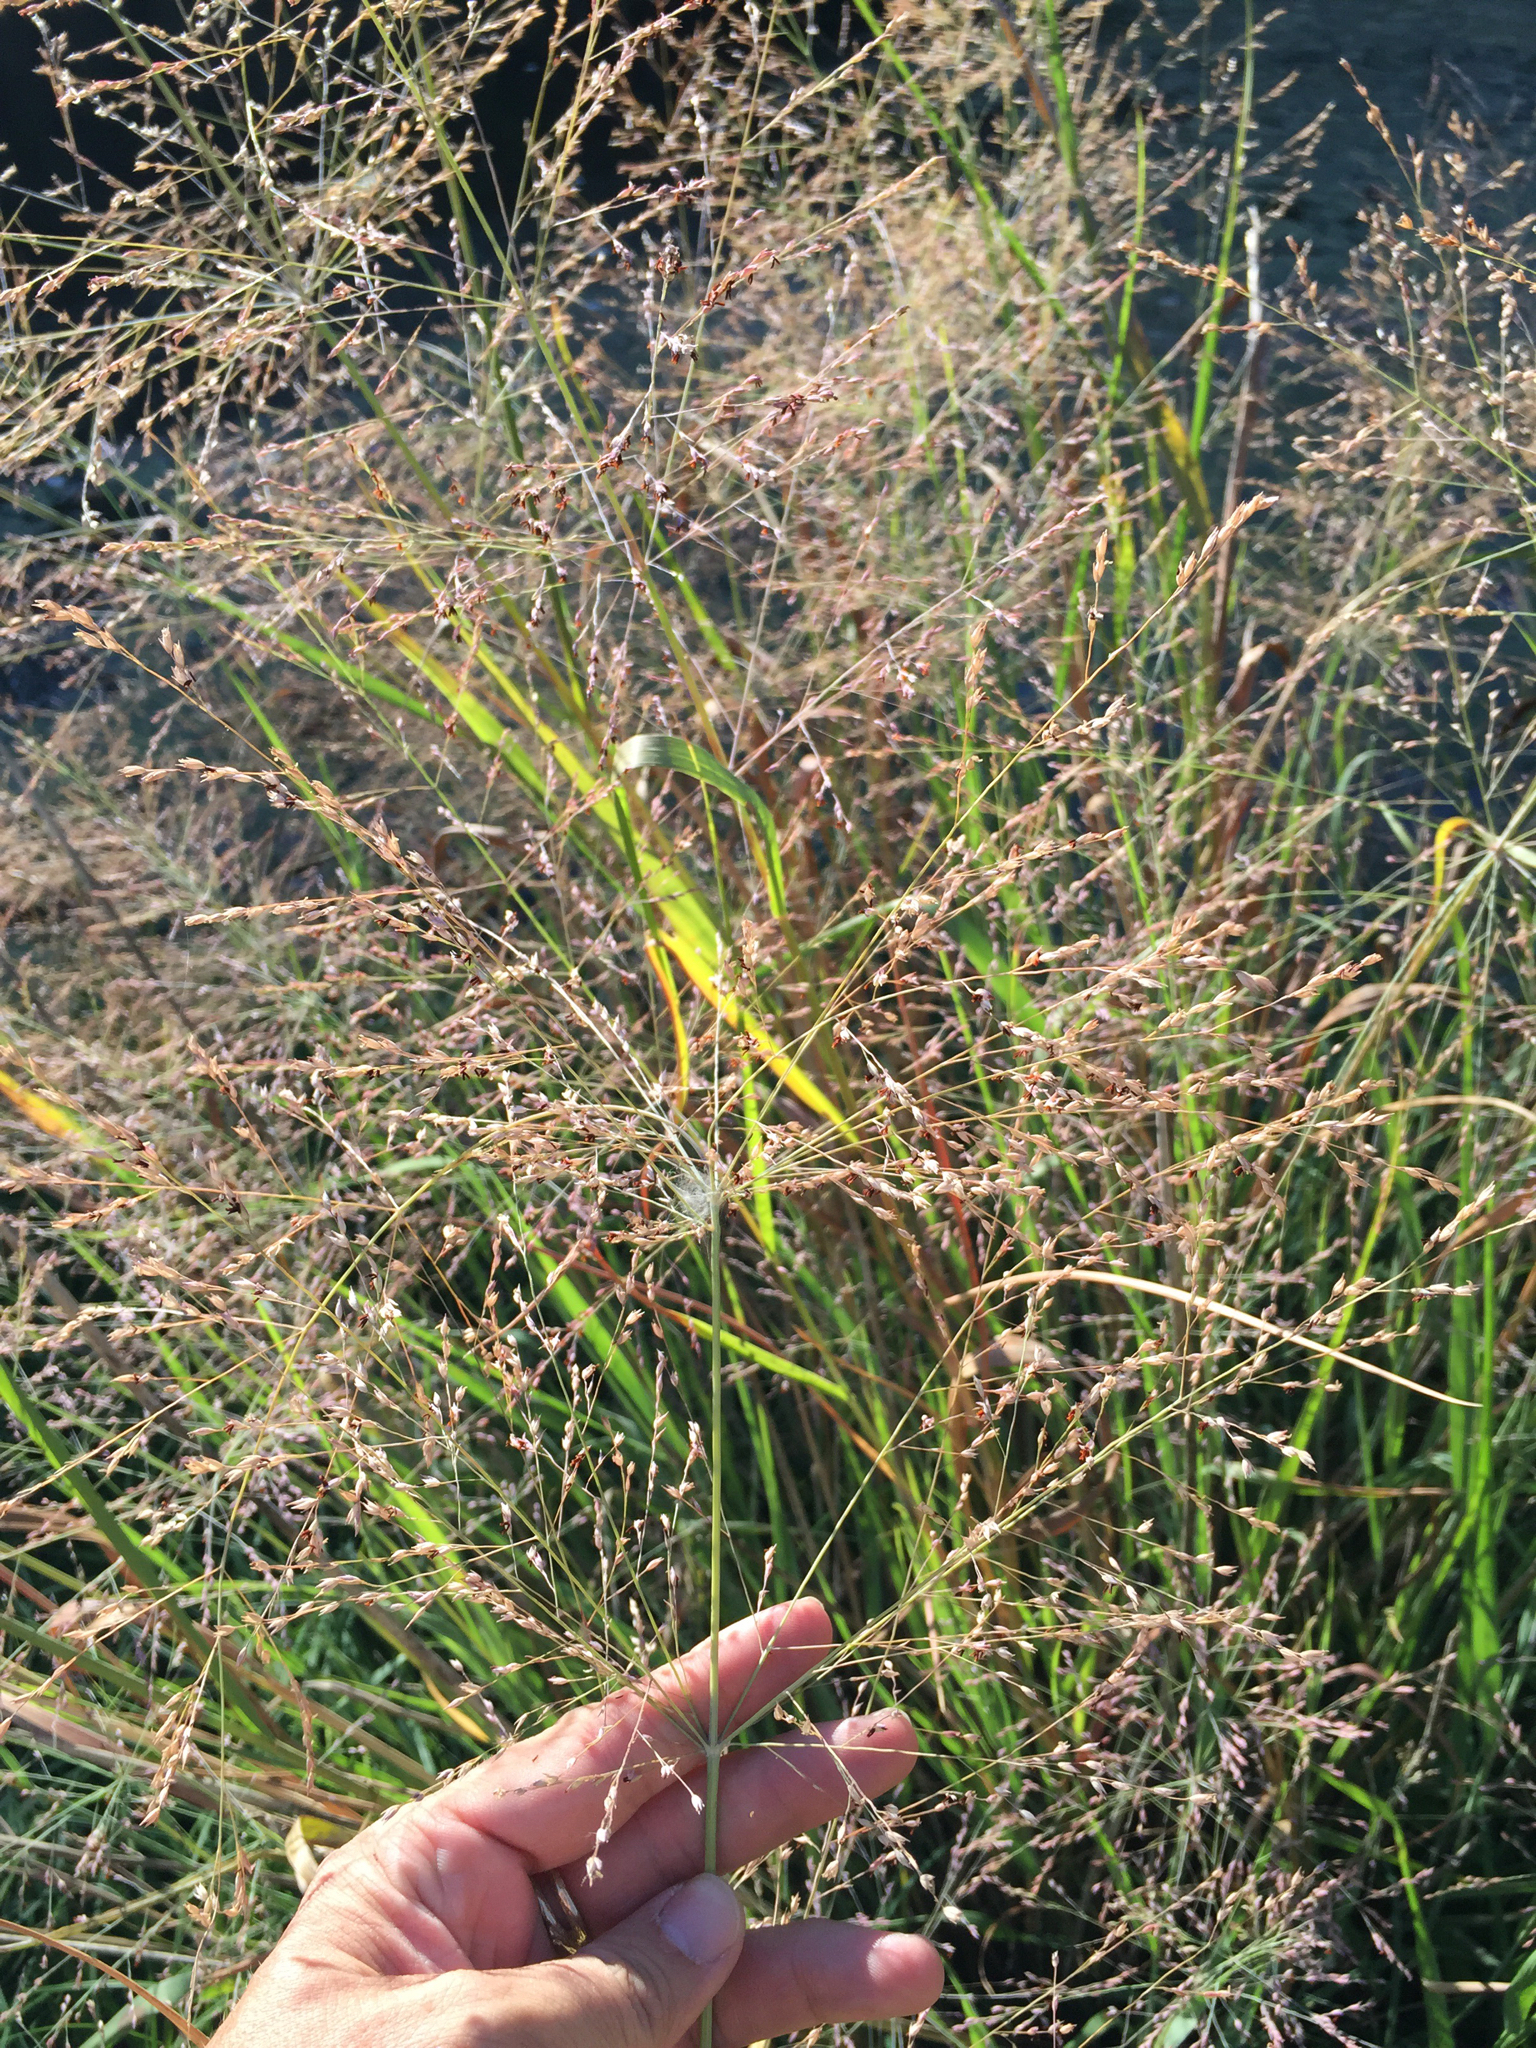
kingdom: Plantae
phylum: Tracheophyta
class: Liliopsida
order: Poales
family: Poaceae
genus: Panicum
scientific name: Panicum virgatum
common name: Switchgrass
